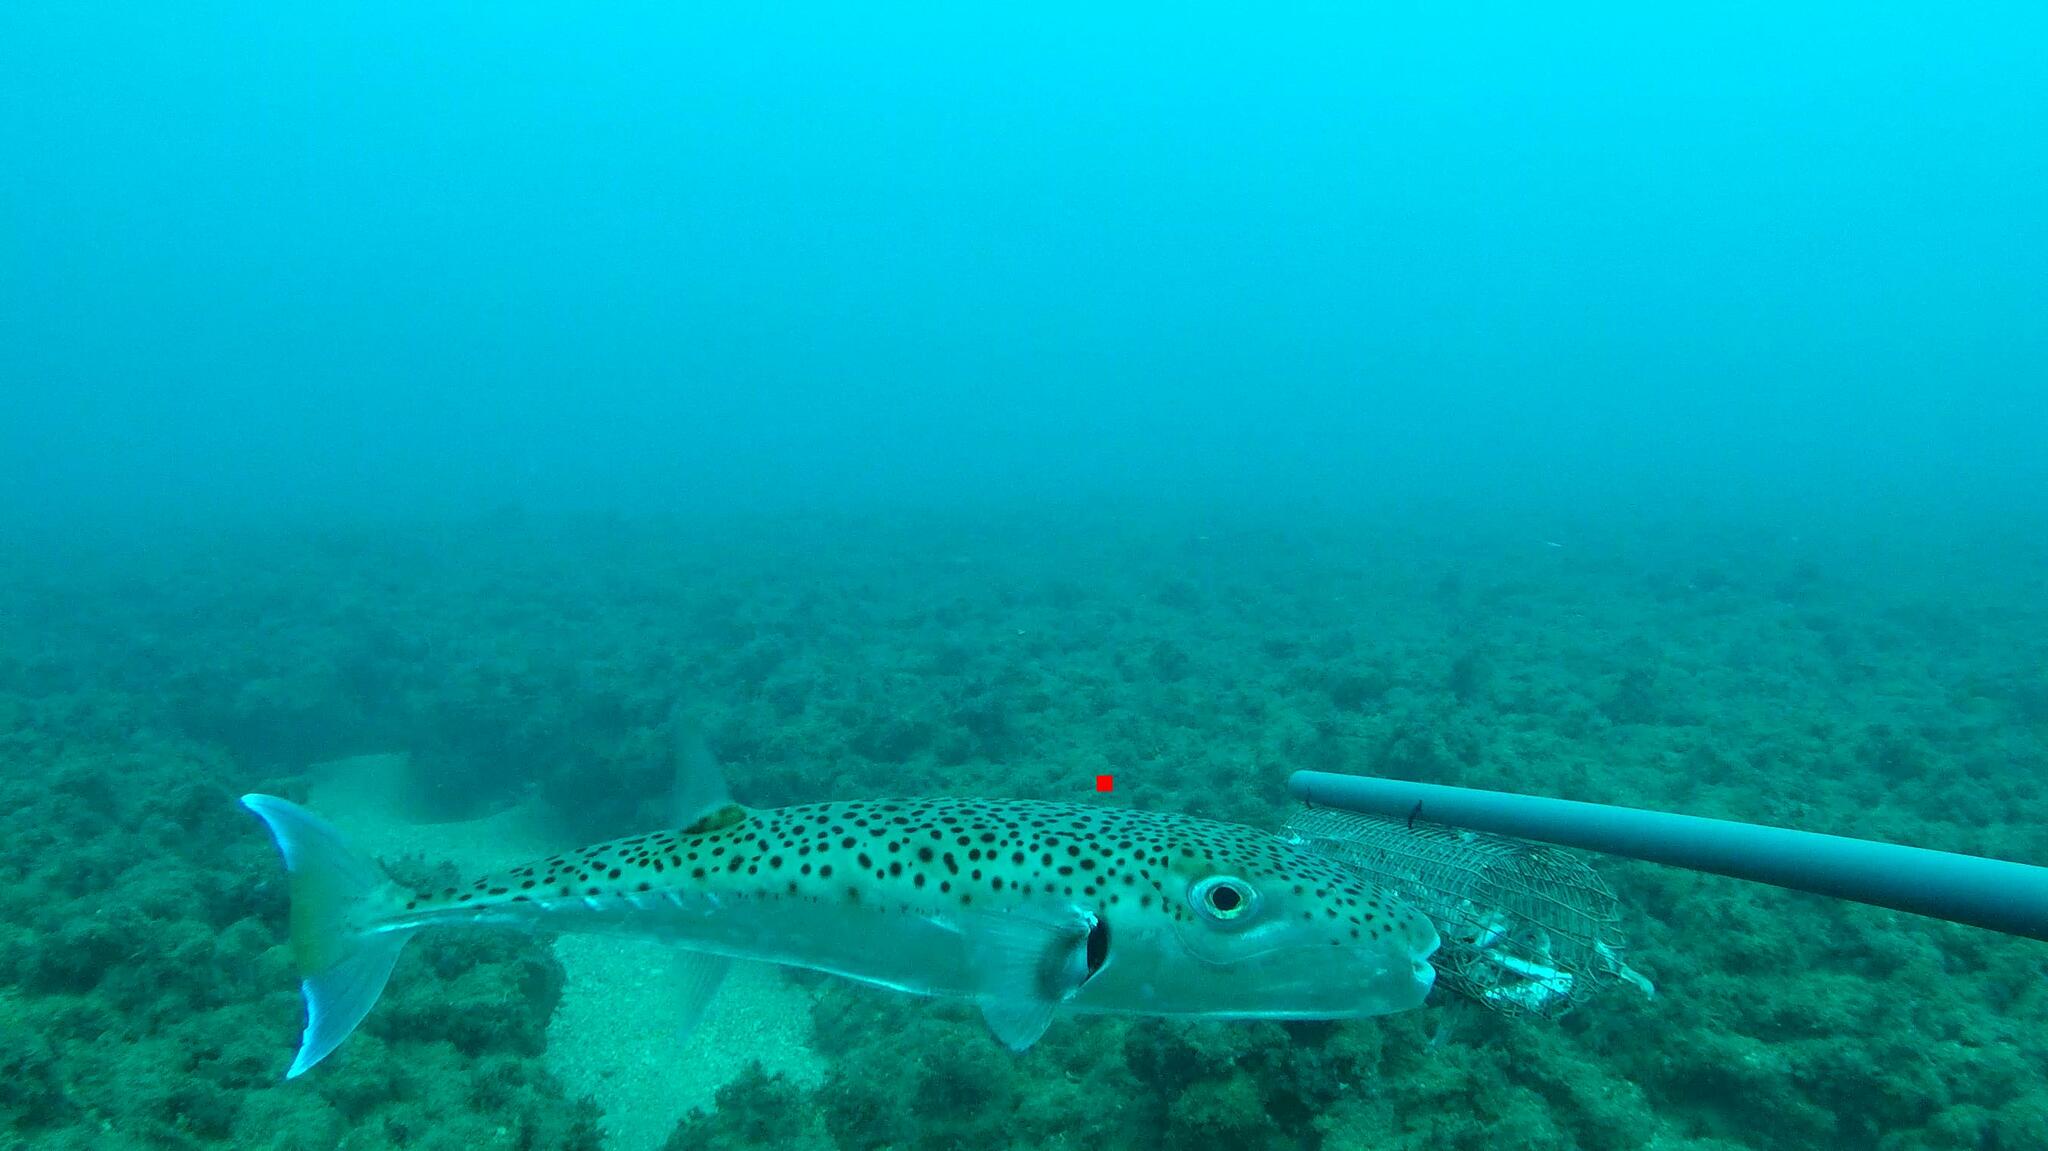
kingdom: Animalia
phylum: Chordata
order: Tetraodontiformes
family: Tetraodontidae
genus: Lagocephalus
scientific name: Lagocephalus sceleratus
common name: Silverstripe blaasop
